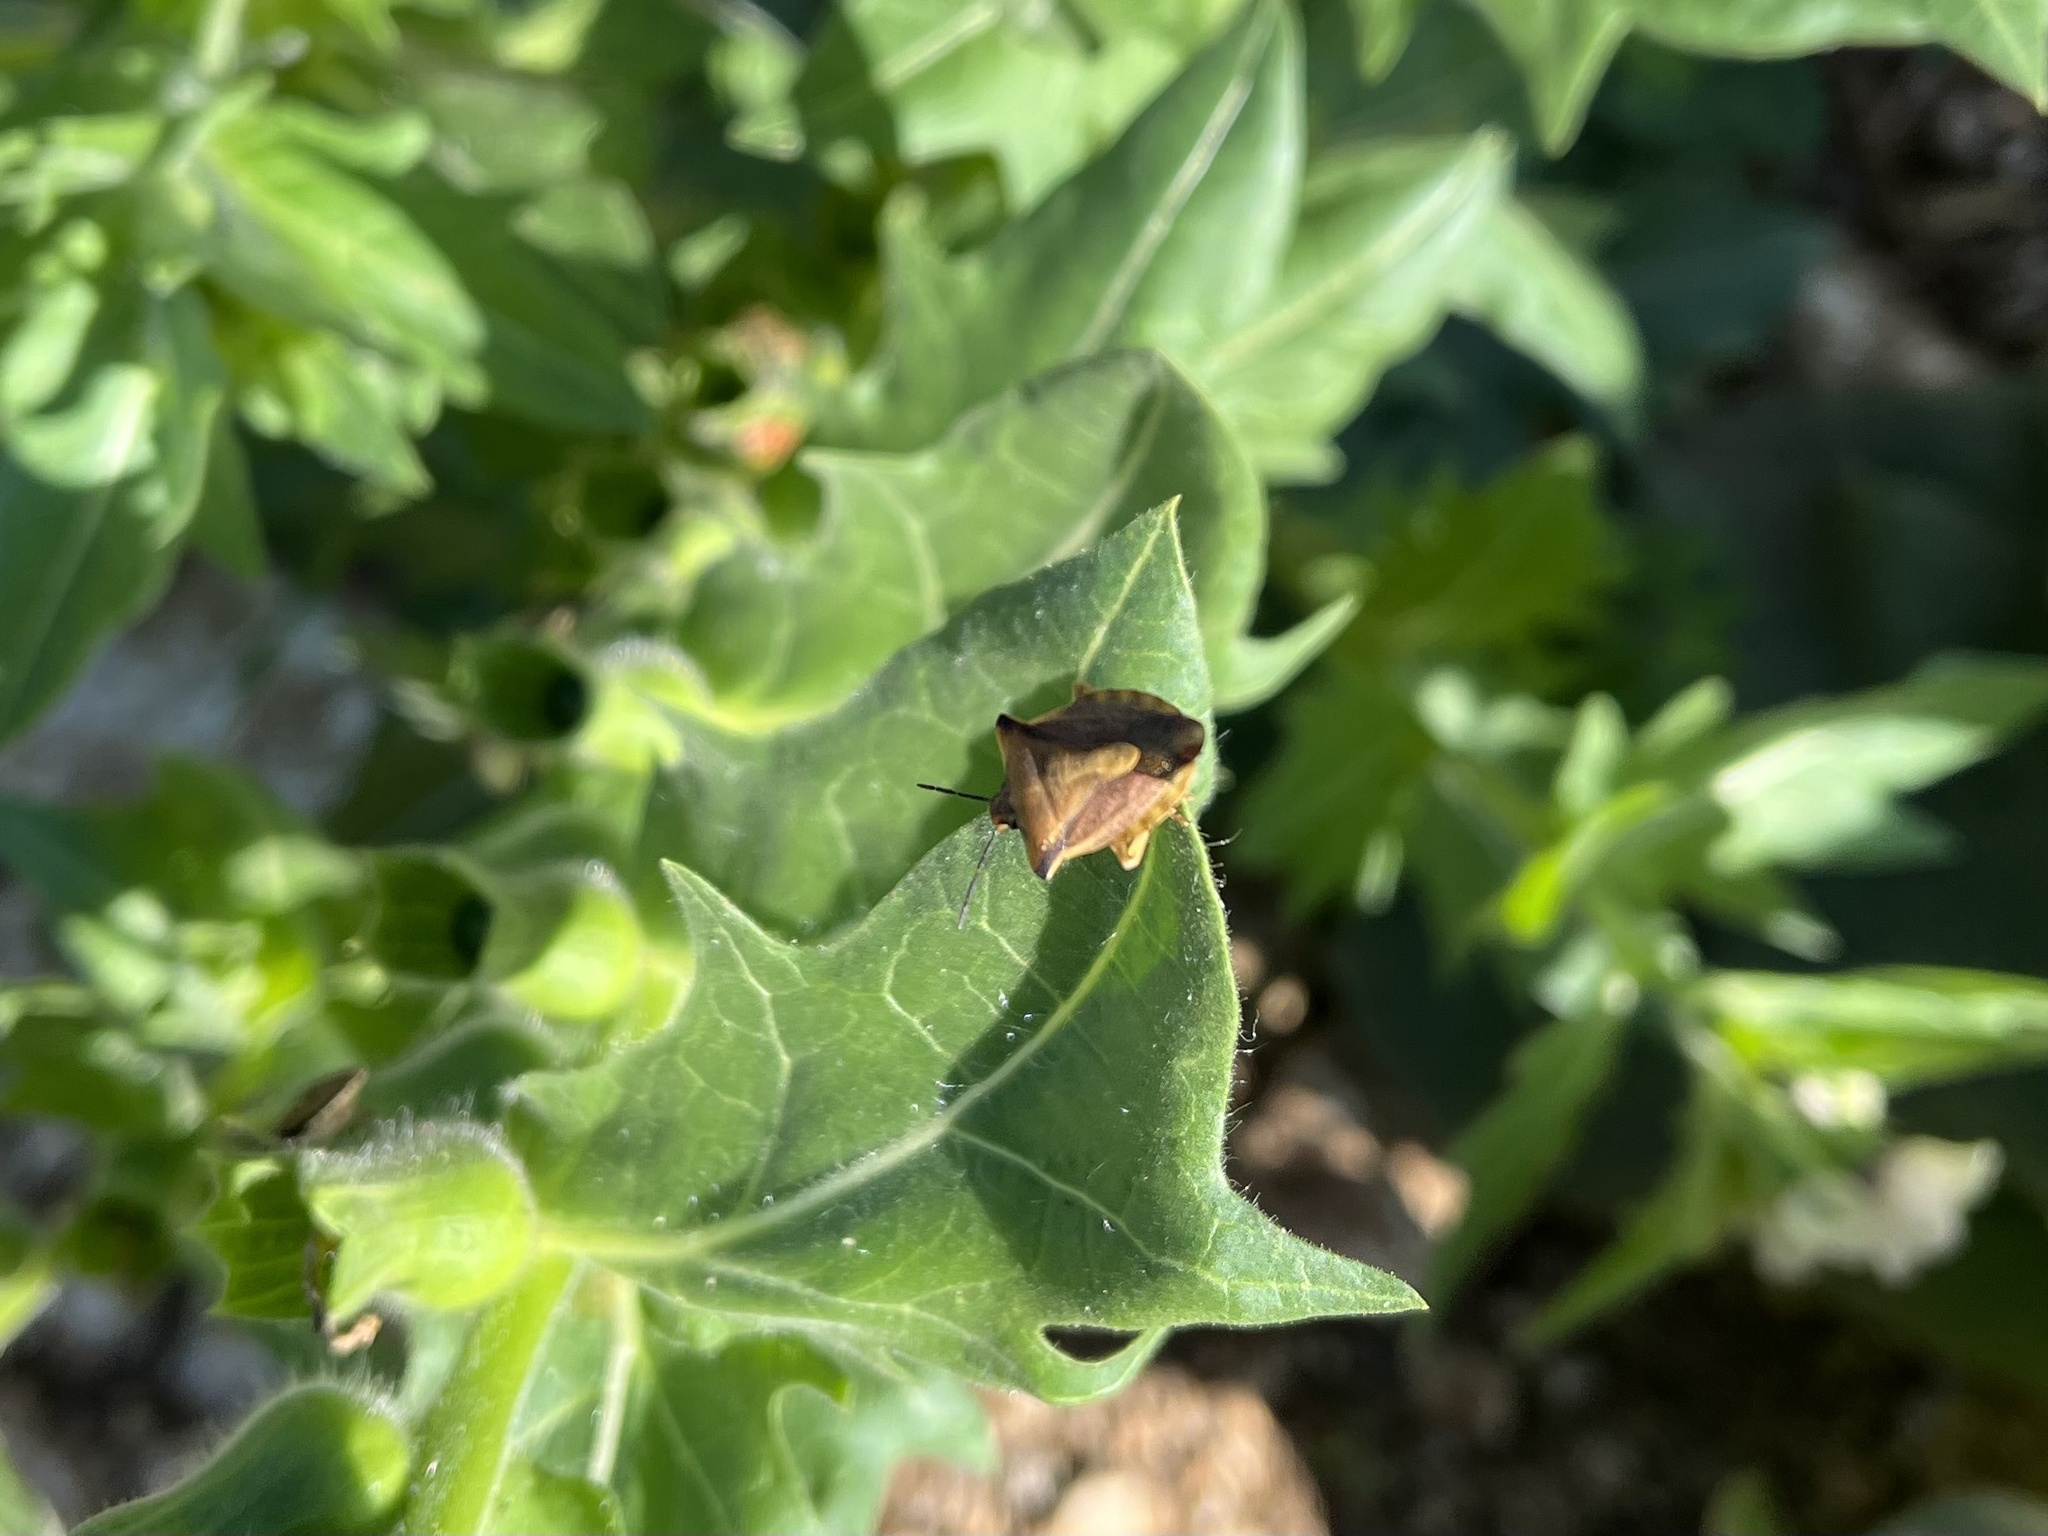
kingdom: Animalia
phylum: Arthropoda
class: Insecta
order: Hemiptera
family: Pentatomidae
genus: Carpocoris
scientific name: Carpocoris fuscispinus
